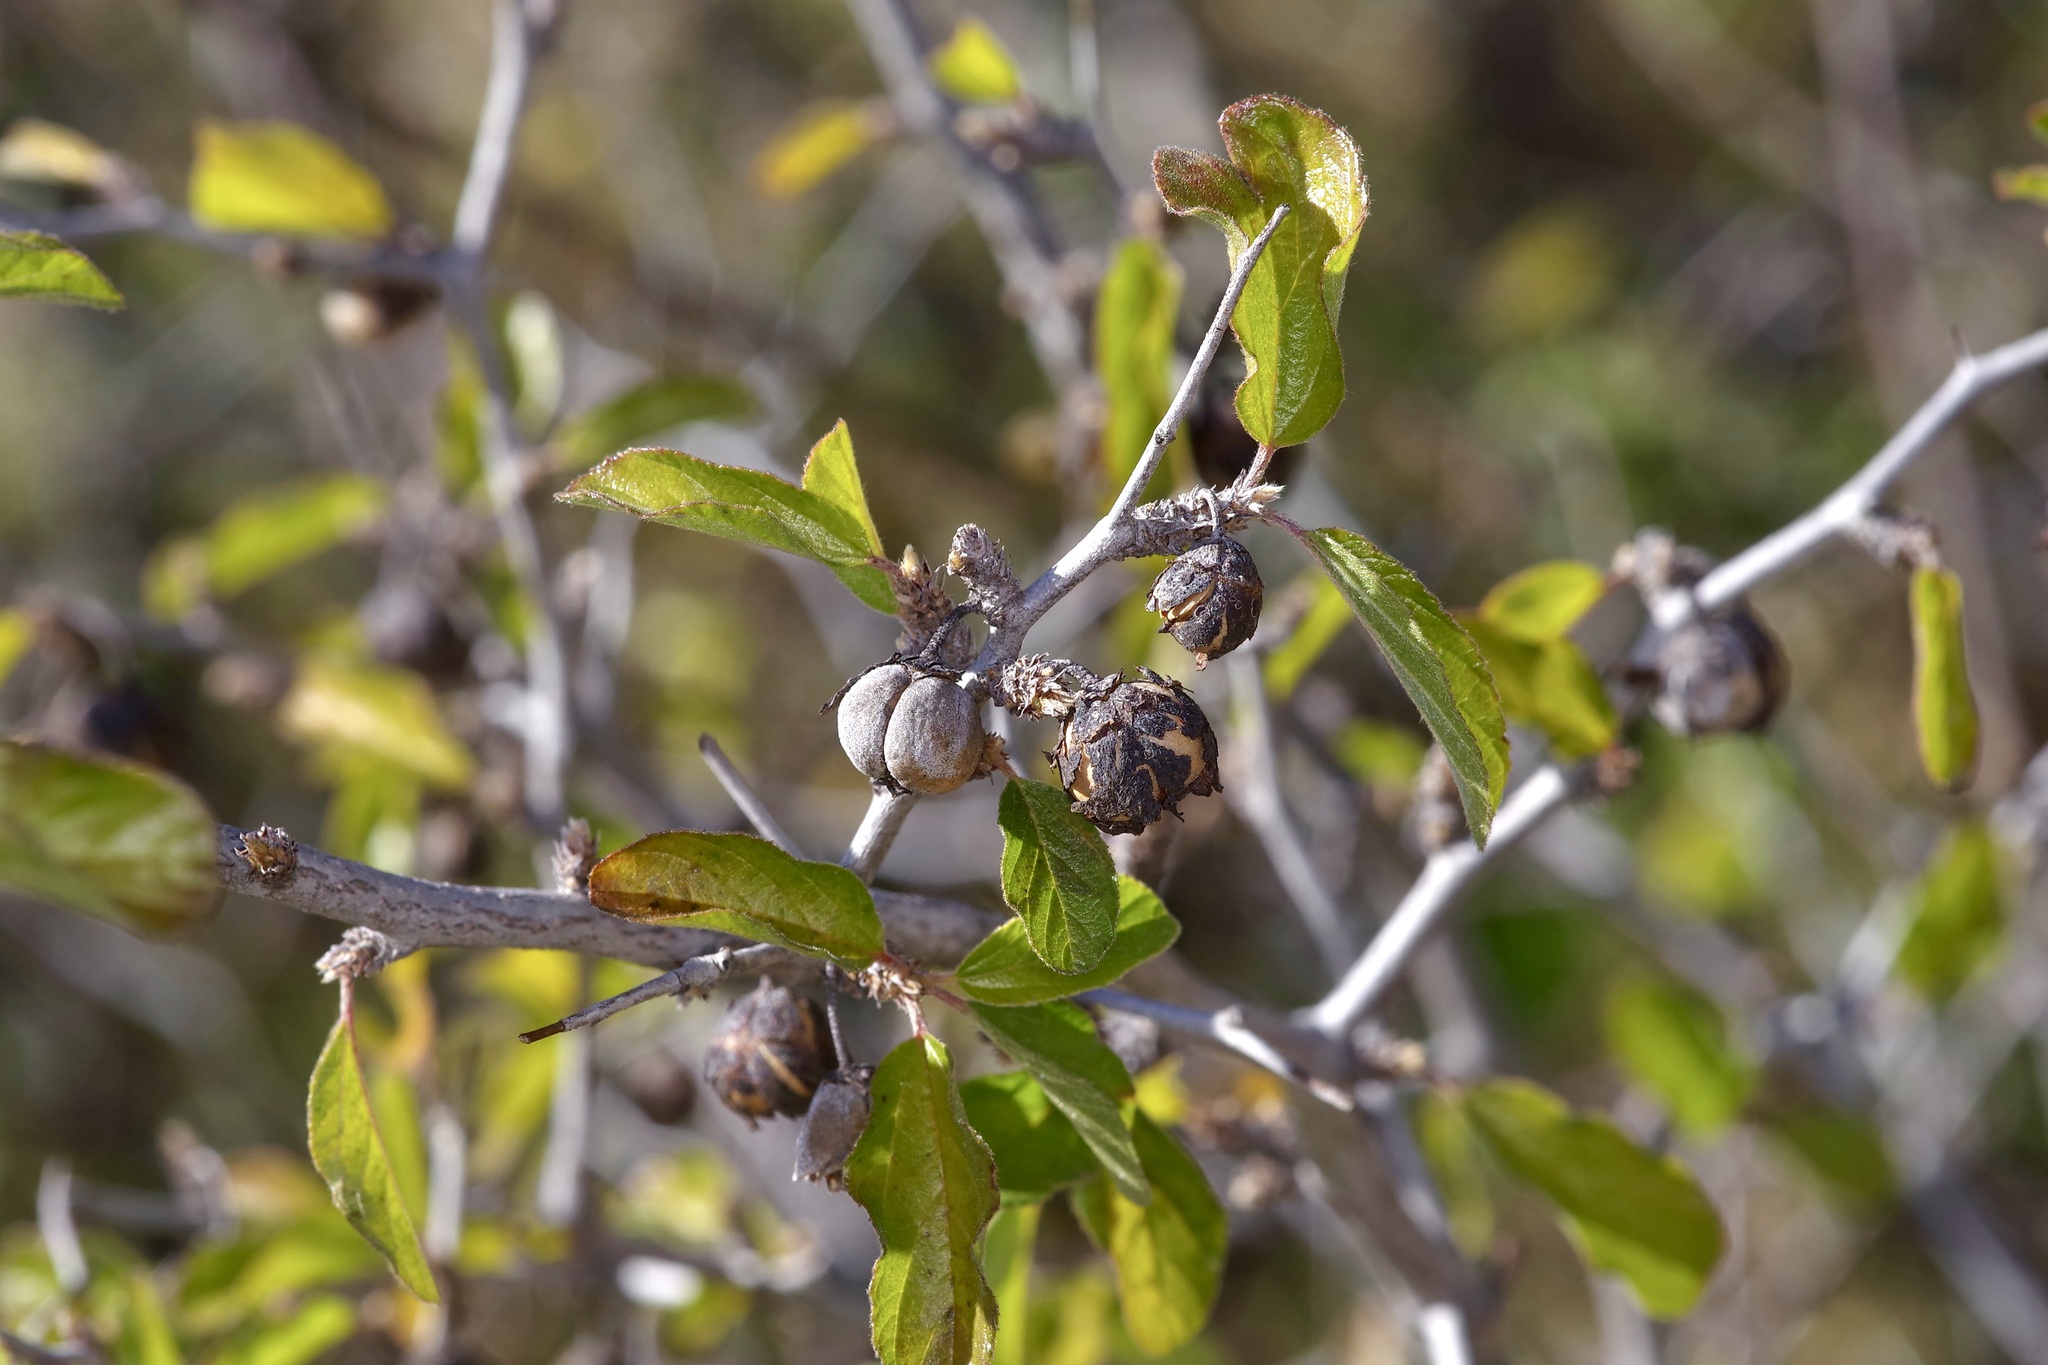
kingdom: Plantae
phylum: Tracheophyta
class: Magnoliopsida
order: Rosales
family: Rhamnaceae
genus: Colubrina
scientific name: Colubrina texensis
